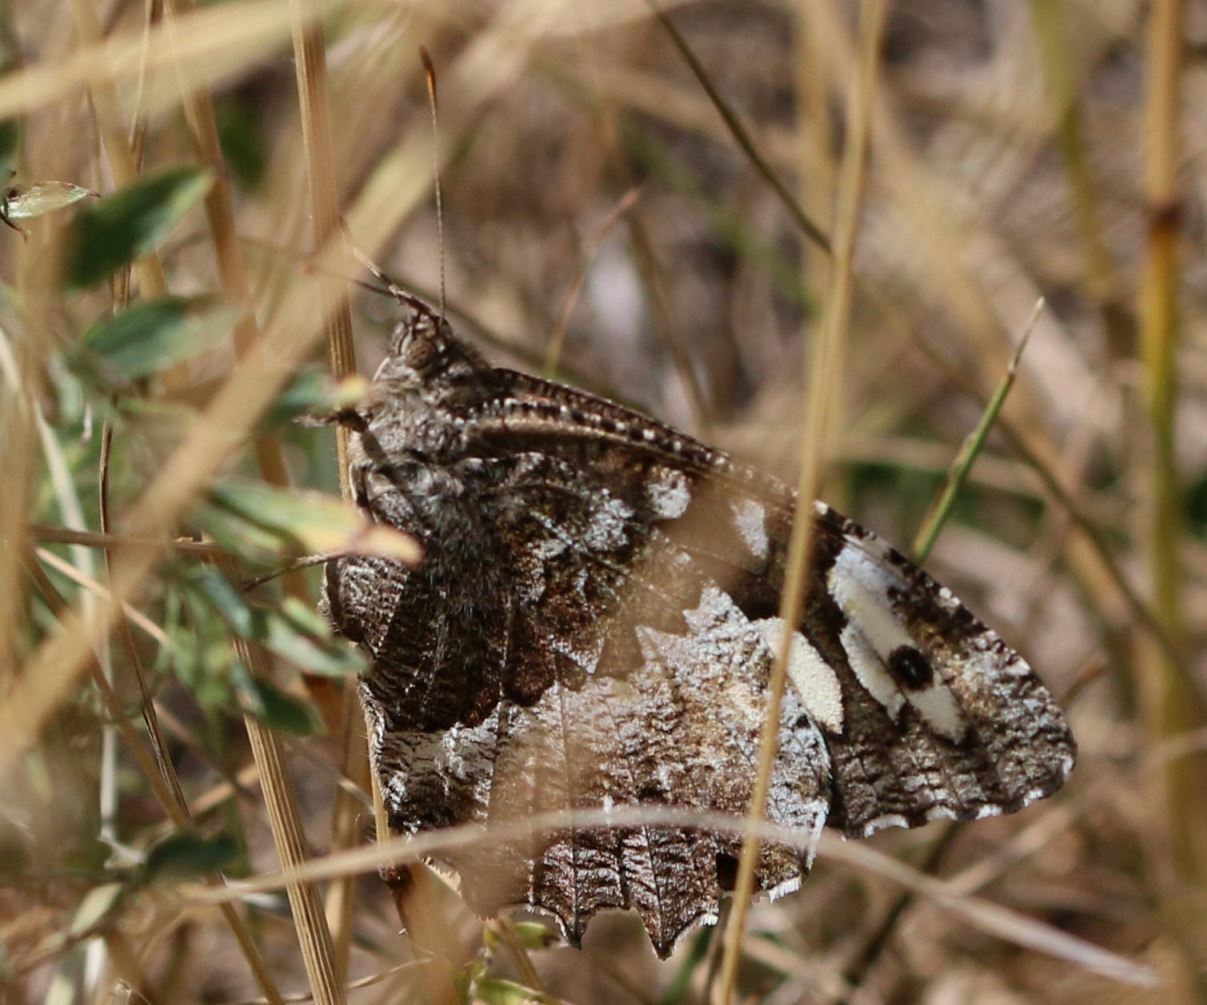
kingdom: Animalia
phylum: Arthropoda
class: Insecta
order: Lepidoptera
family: Lycaenidae
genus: Loweia
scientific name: Loweia tityrus
